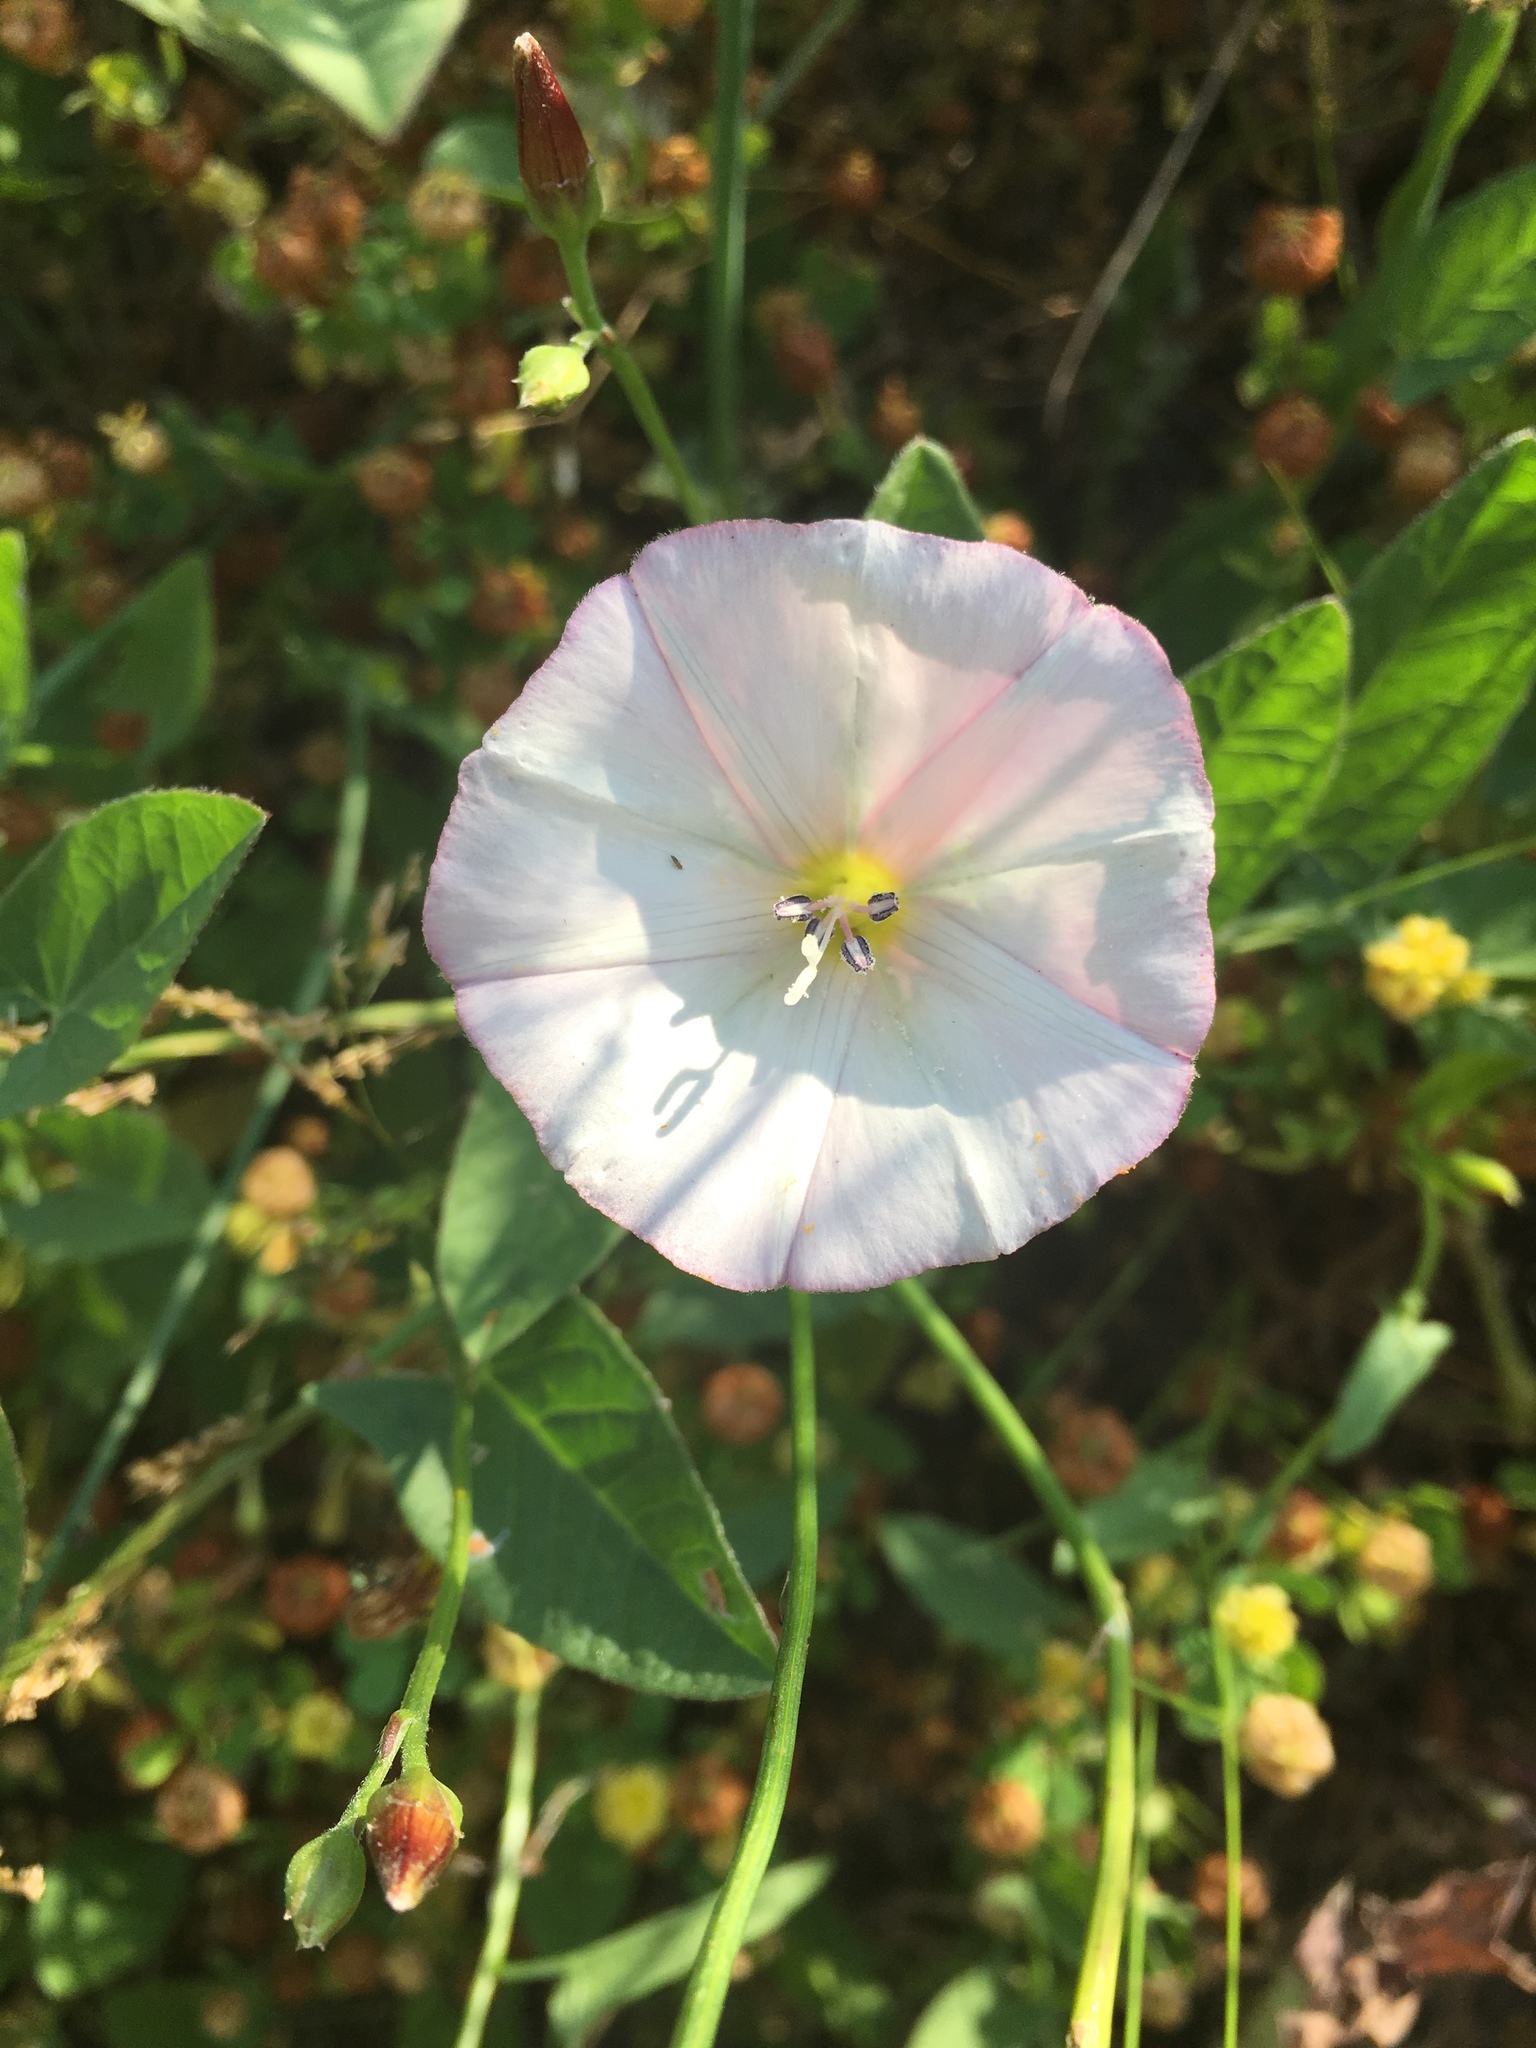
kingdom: Plantae
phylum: Tracheophyta
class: Magnoliopsida
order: Solanales
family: Convolvulaceae
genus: Convolvulus
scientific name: Convolvulus arvensis
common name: Field bindweed
